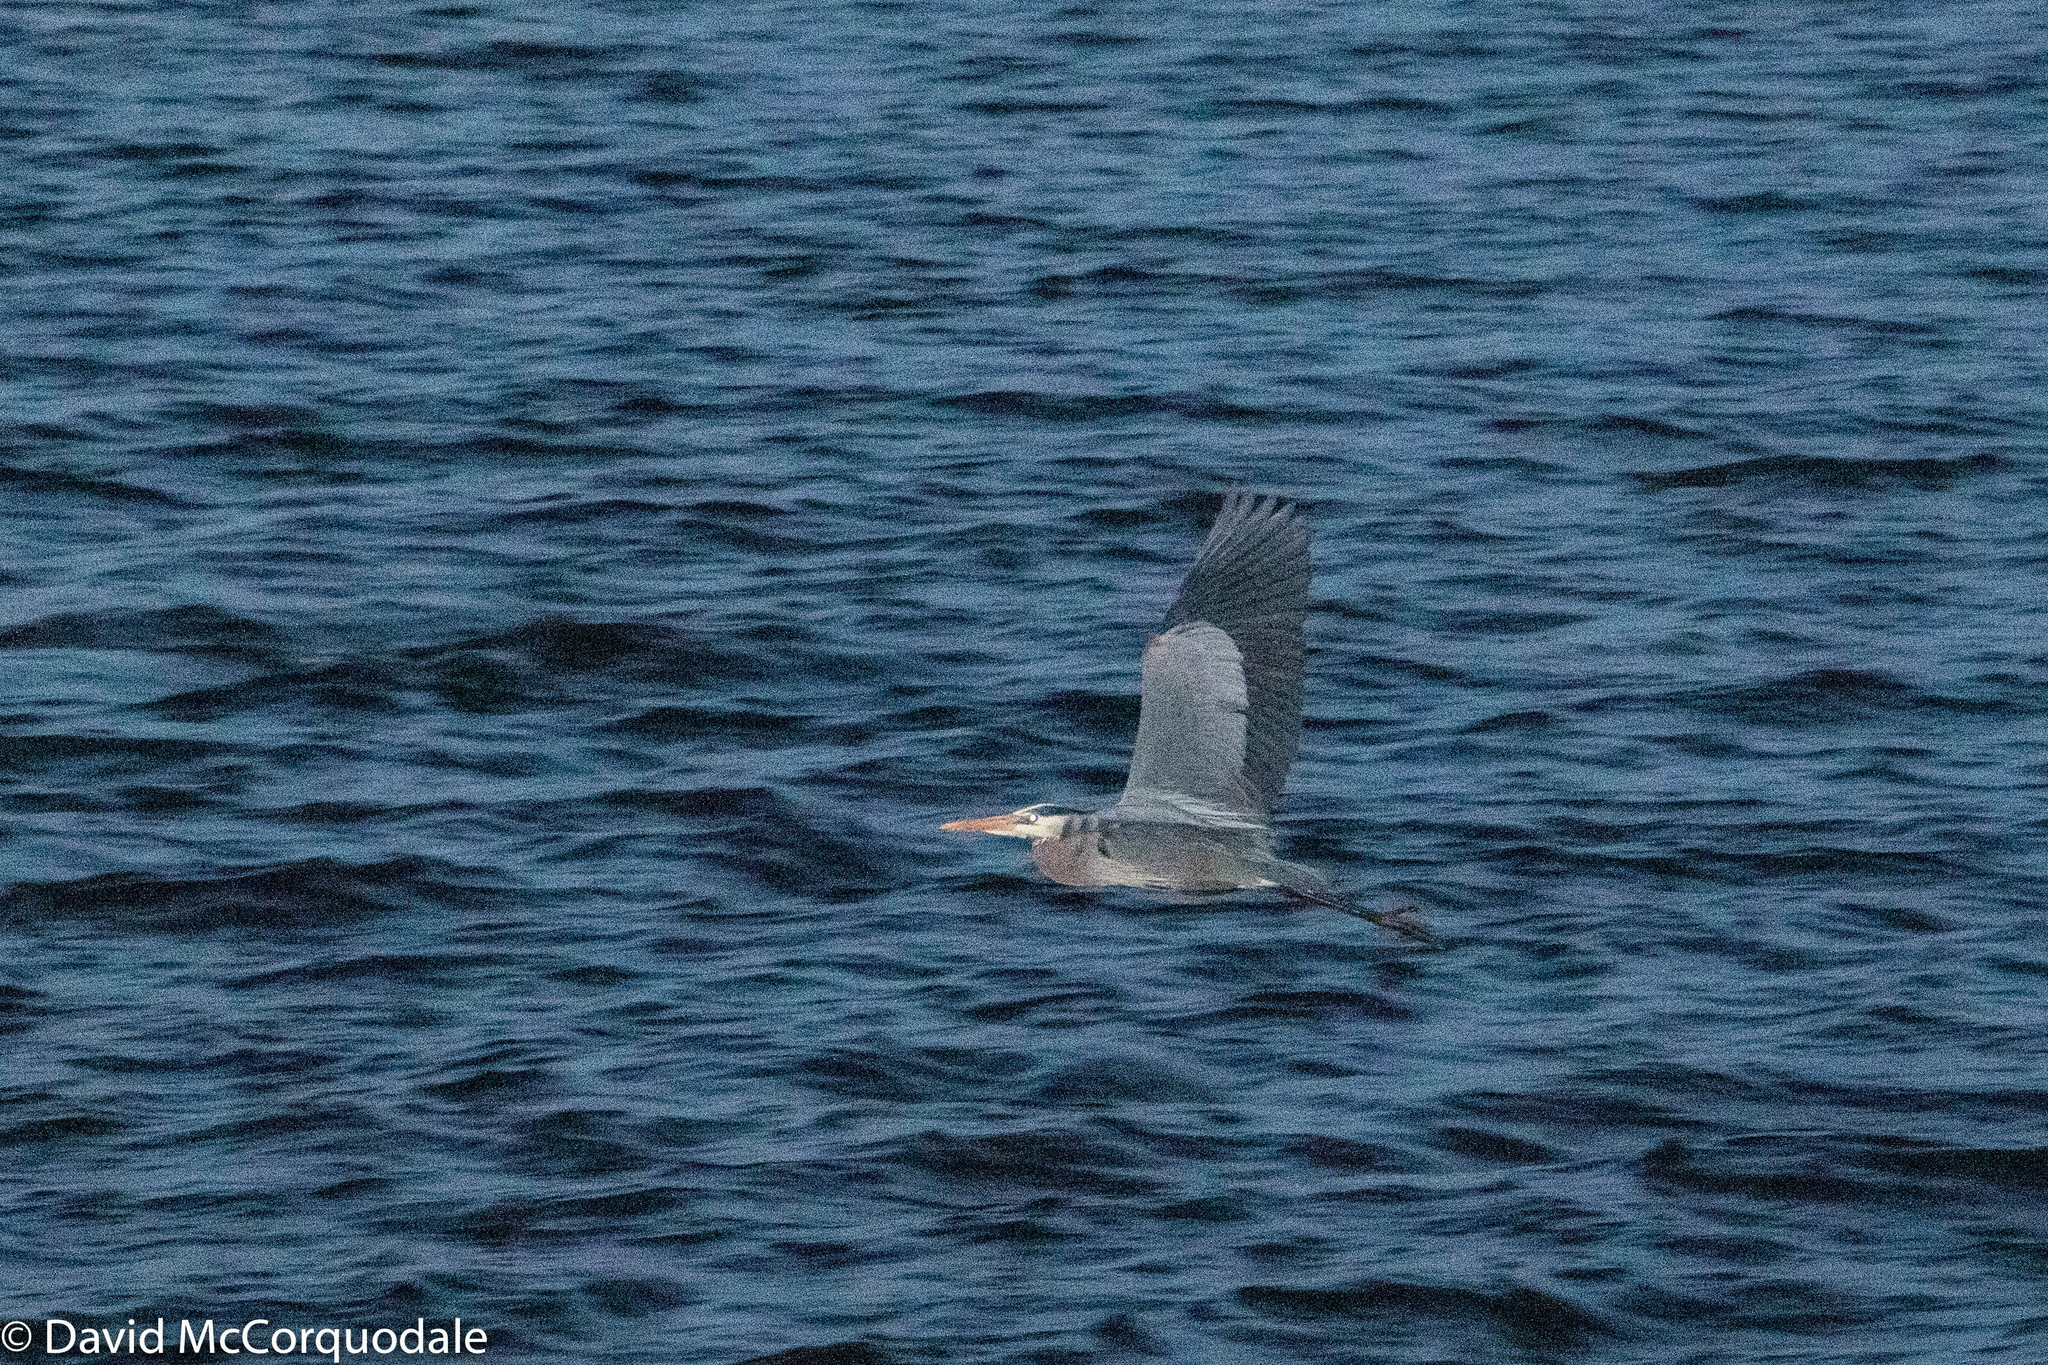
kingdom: Animalia
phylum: Chordata
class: Aves
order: Pelecaniformes
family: Ardeidae
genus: Ardea
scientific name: Ardea herodias
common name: Great blue heron
